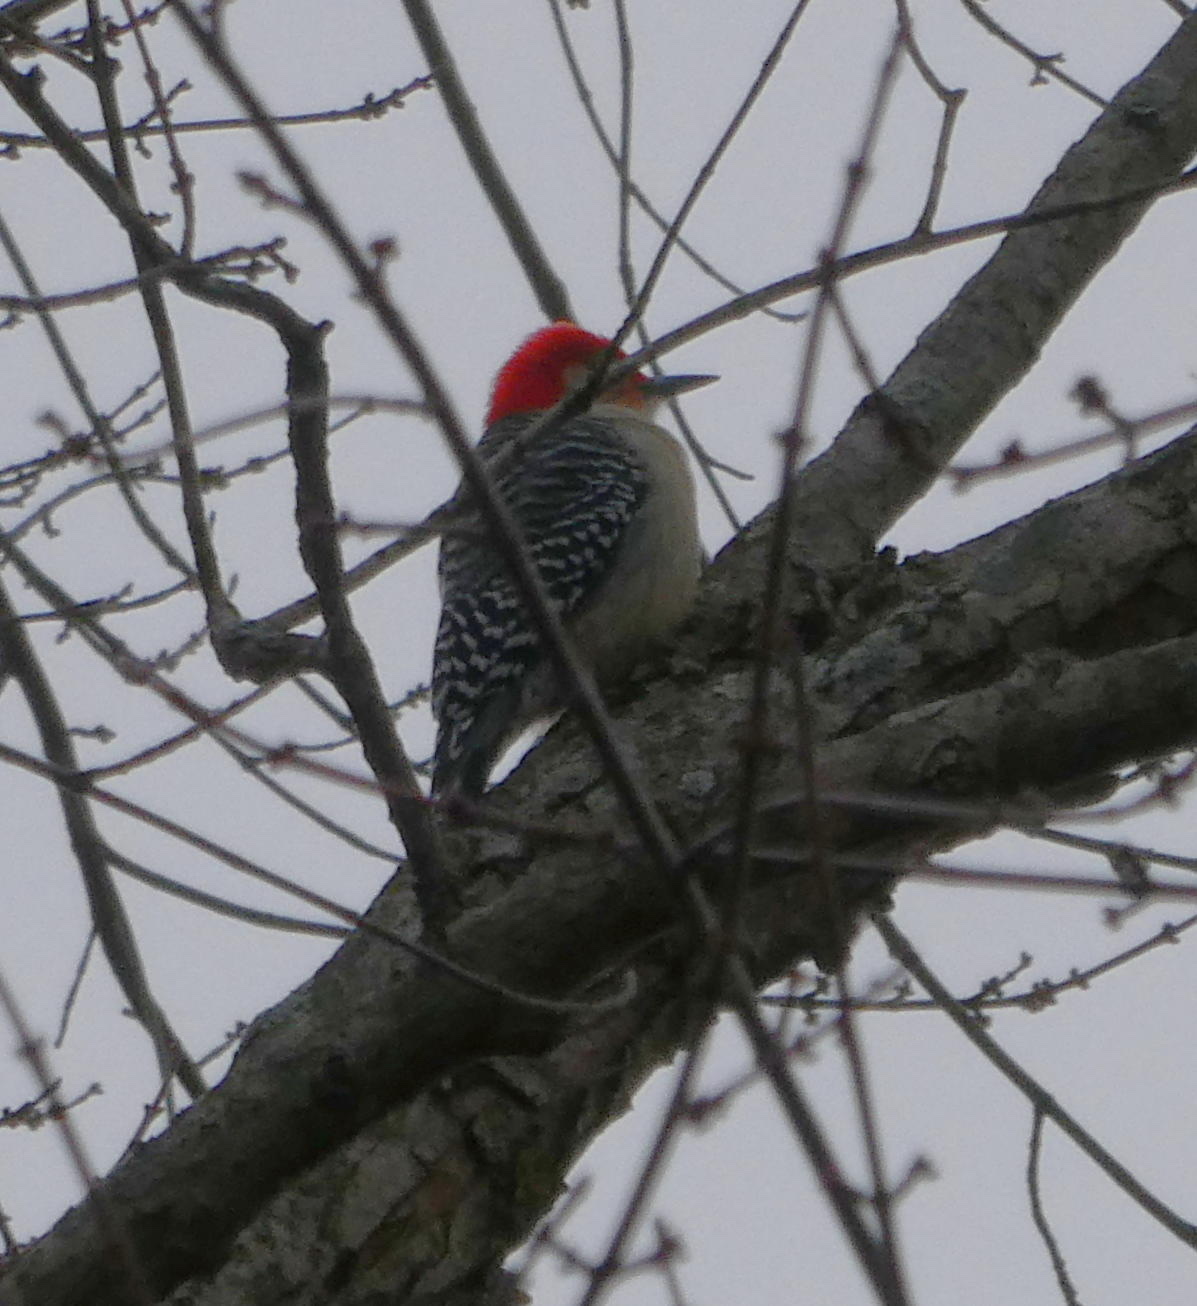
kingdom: Animalia
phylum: Chordata
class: Aves
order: Piciformes
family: Picidae
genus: Melanerpes
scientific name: Melanerpes carolinus
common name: Red-bellied woodpecker
